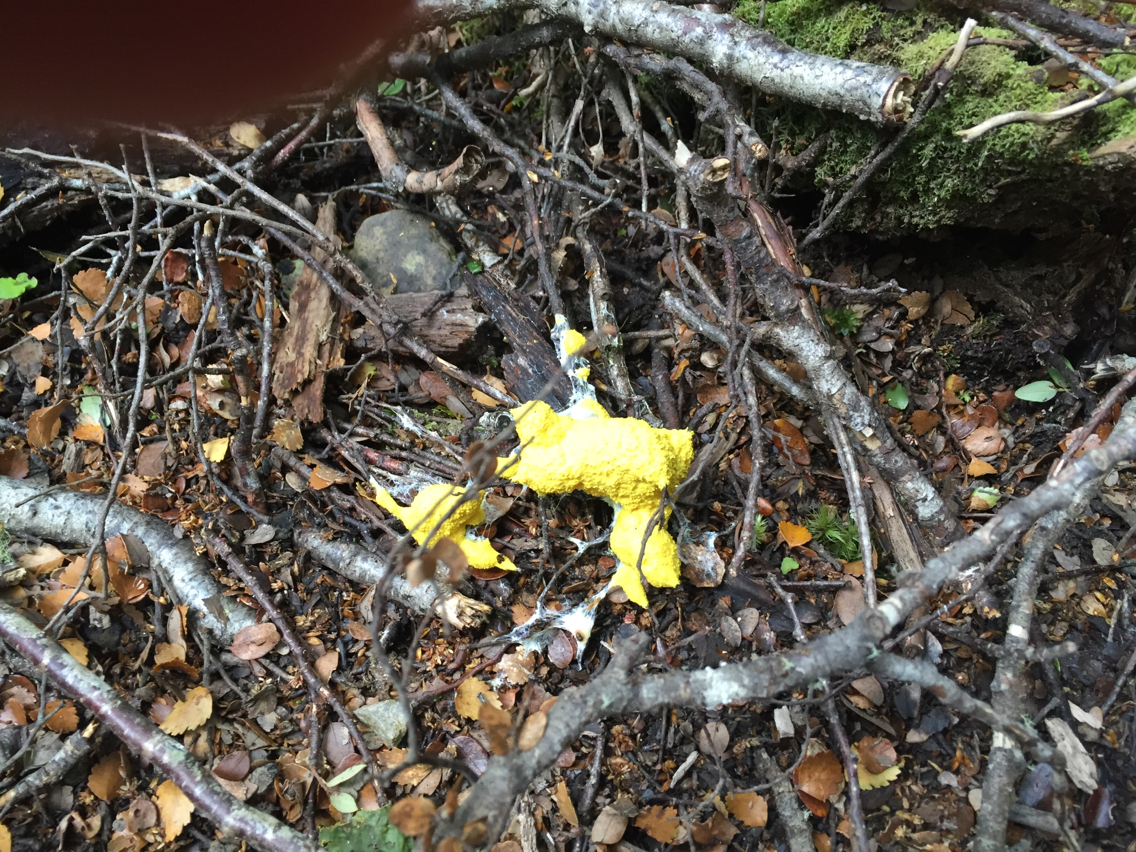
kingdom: Protozoa
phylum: Mycetozoa
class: Myxomycetes
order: Physarales
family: Physaraceae
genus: Fuligo
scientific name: Fuligo septica
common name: Dog vomit slime mold
